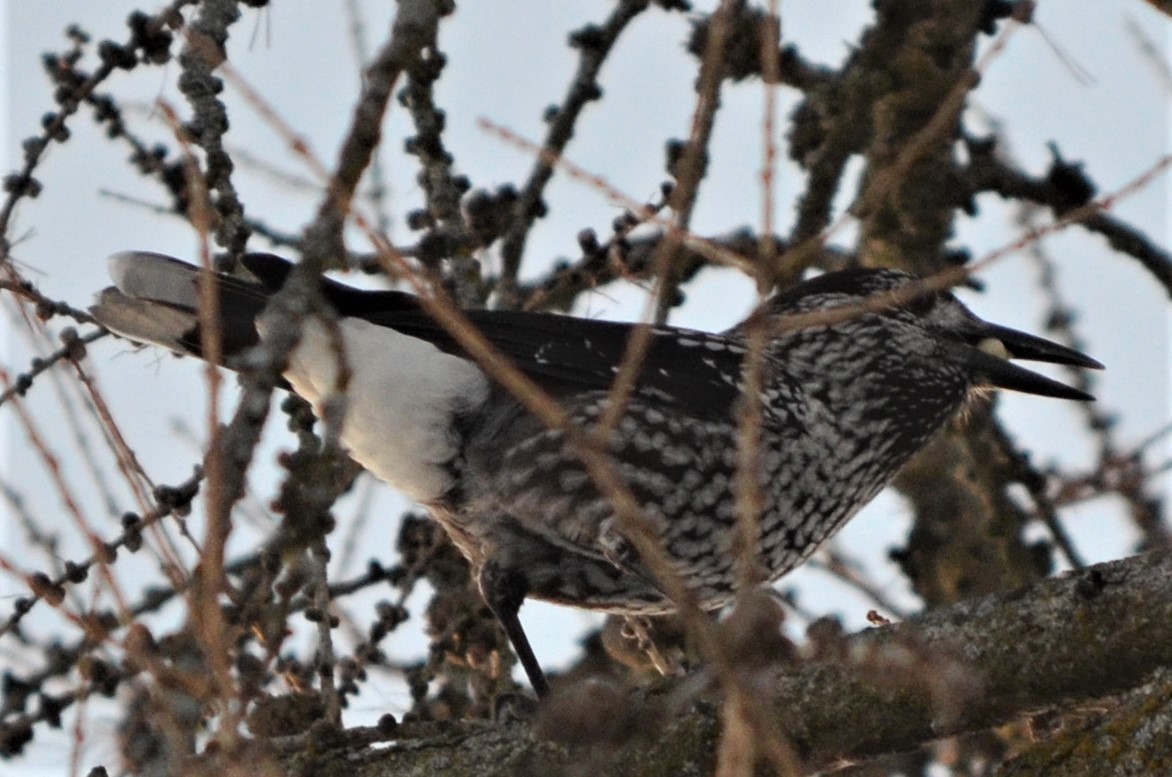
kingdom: Animalia
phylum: Chordata
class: Aves
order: Passeriformes
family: Corvidae
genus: Nucifraga
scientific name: Nucifraga caryocatactes
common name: Spotted nutcracker
